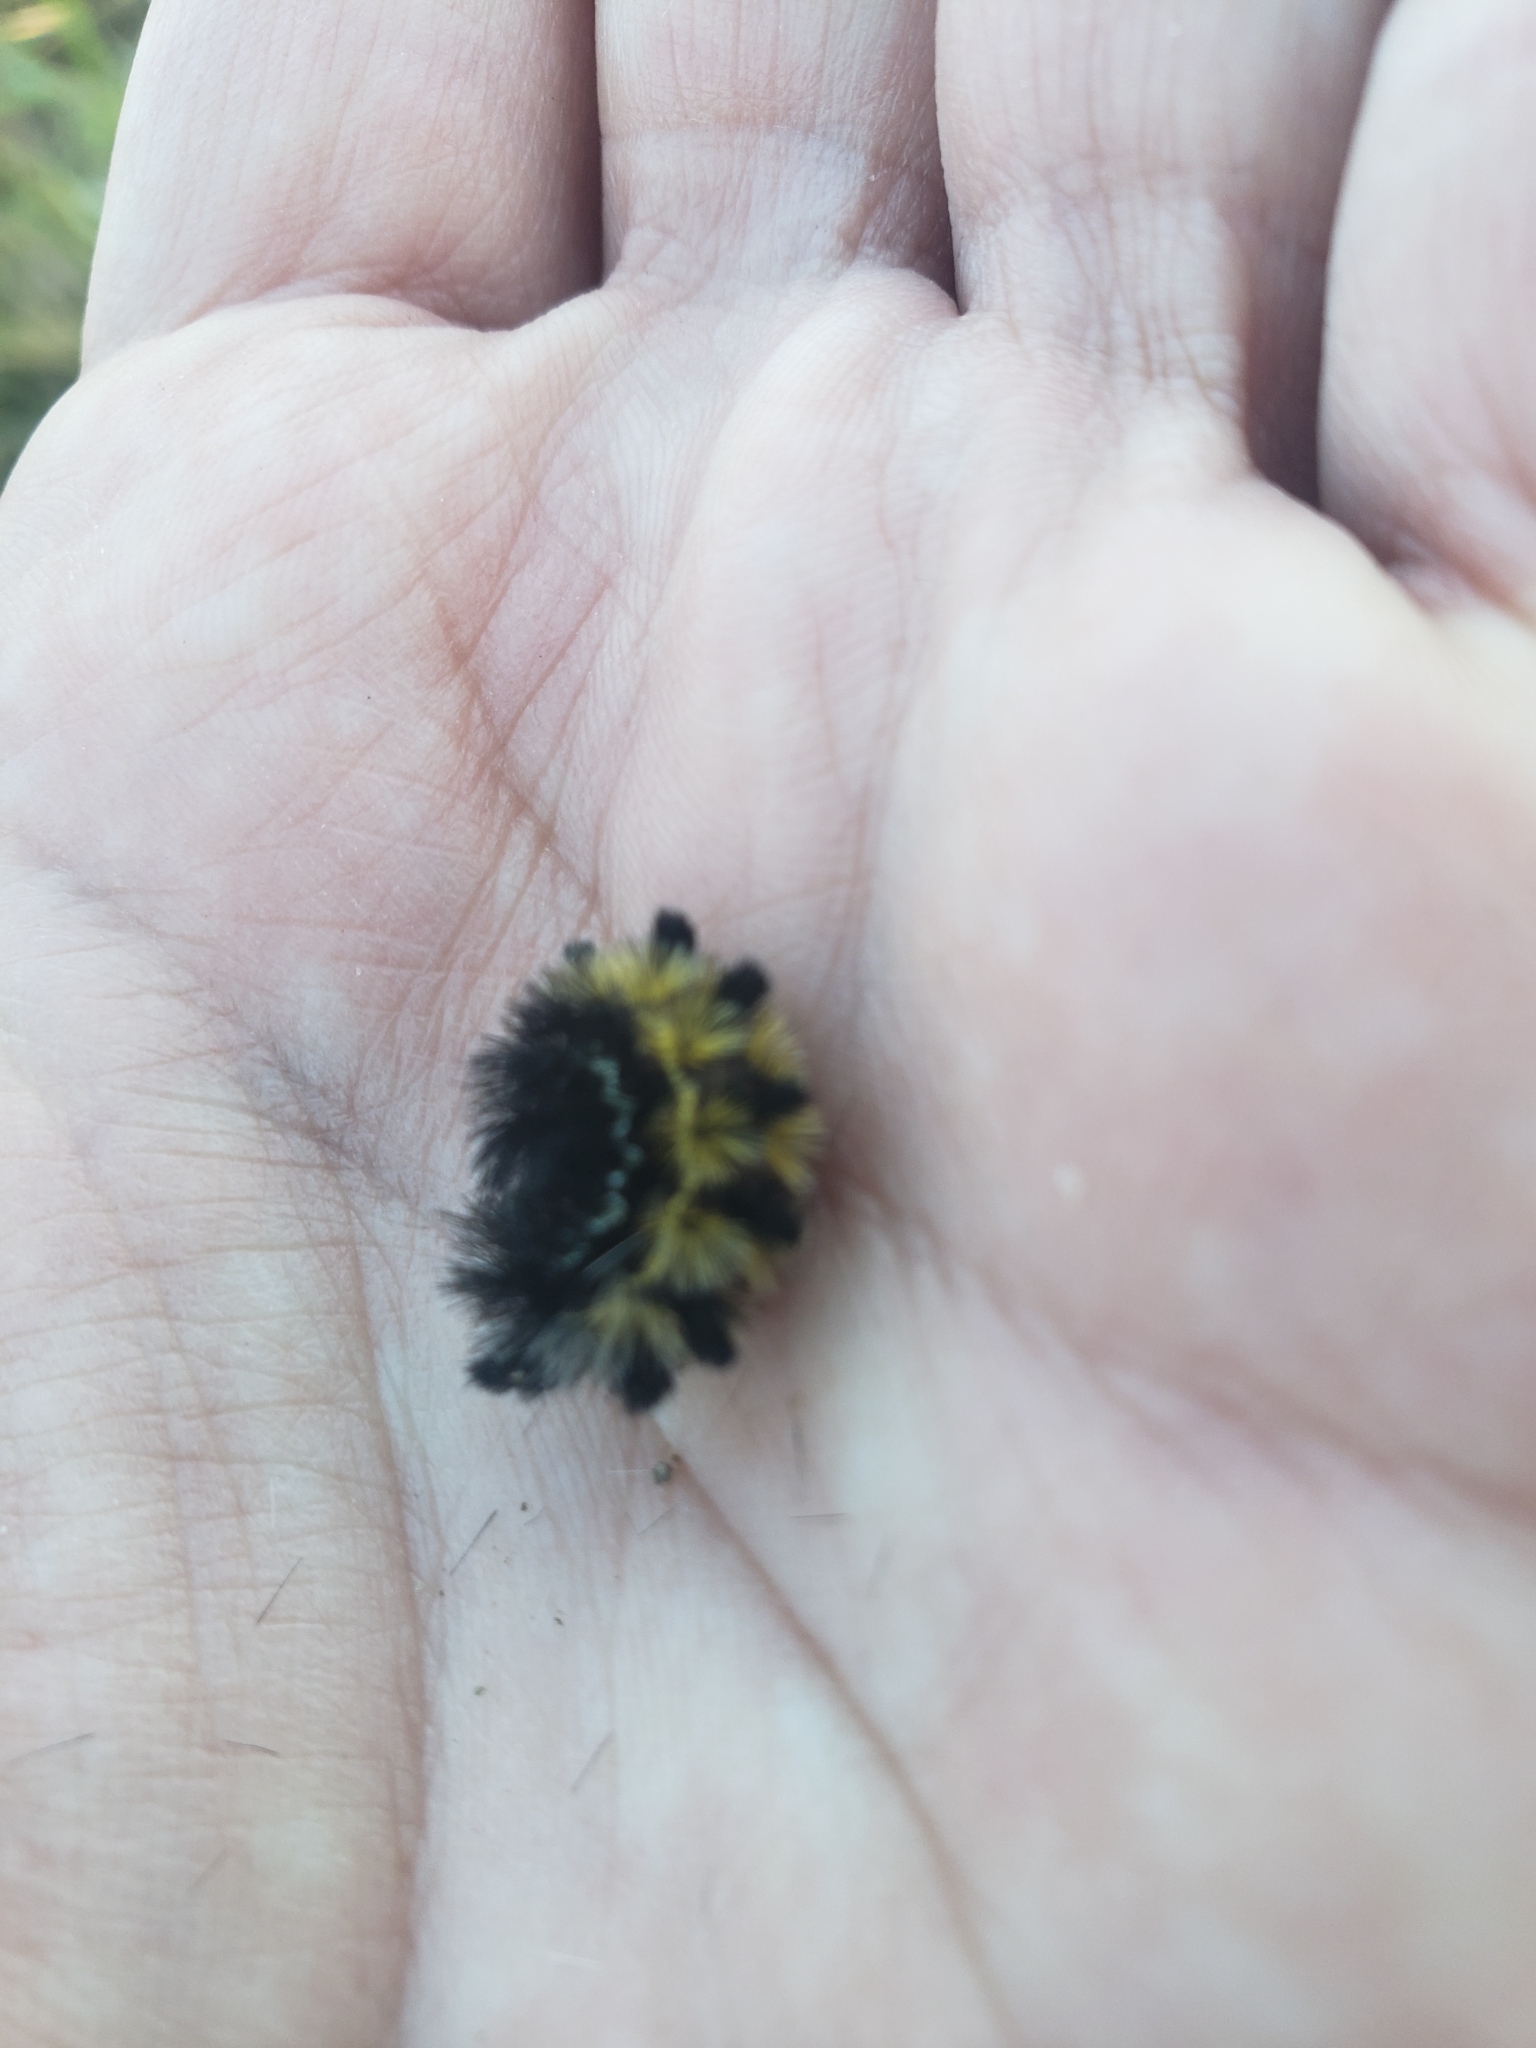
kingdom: Animalia
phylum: Arthropoda
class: Insecta
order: Lepidoptera
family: Erebidae
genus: Ctenucha
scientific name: Ctenucha virginica
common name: Virginia ctenucha moth
